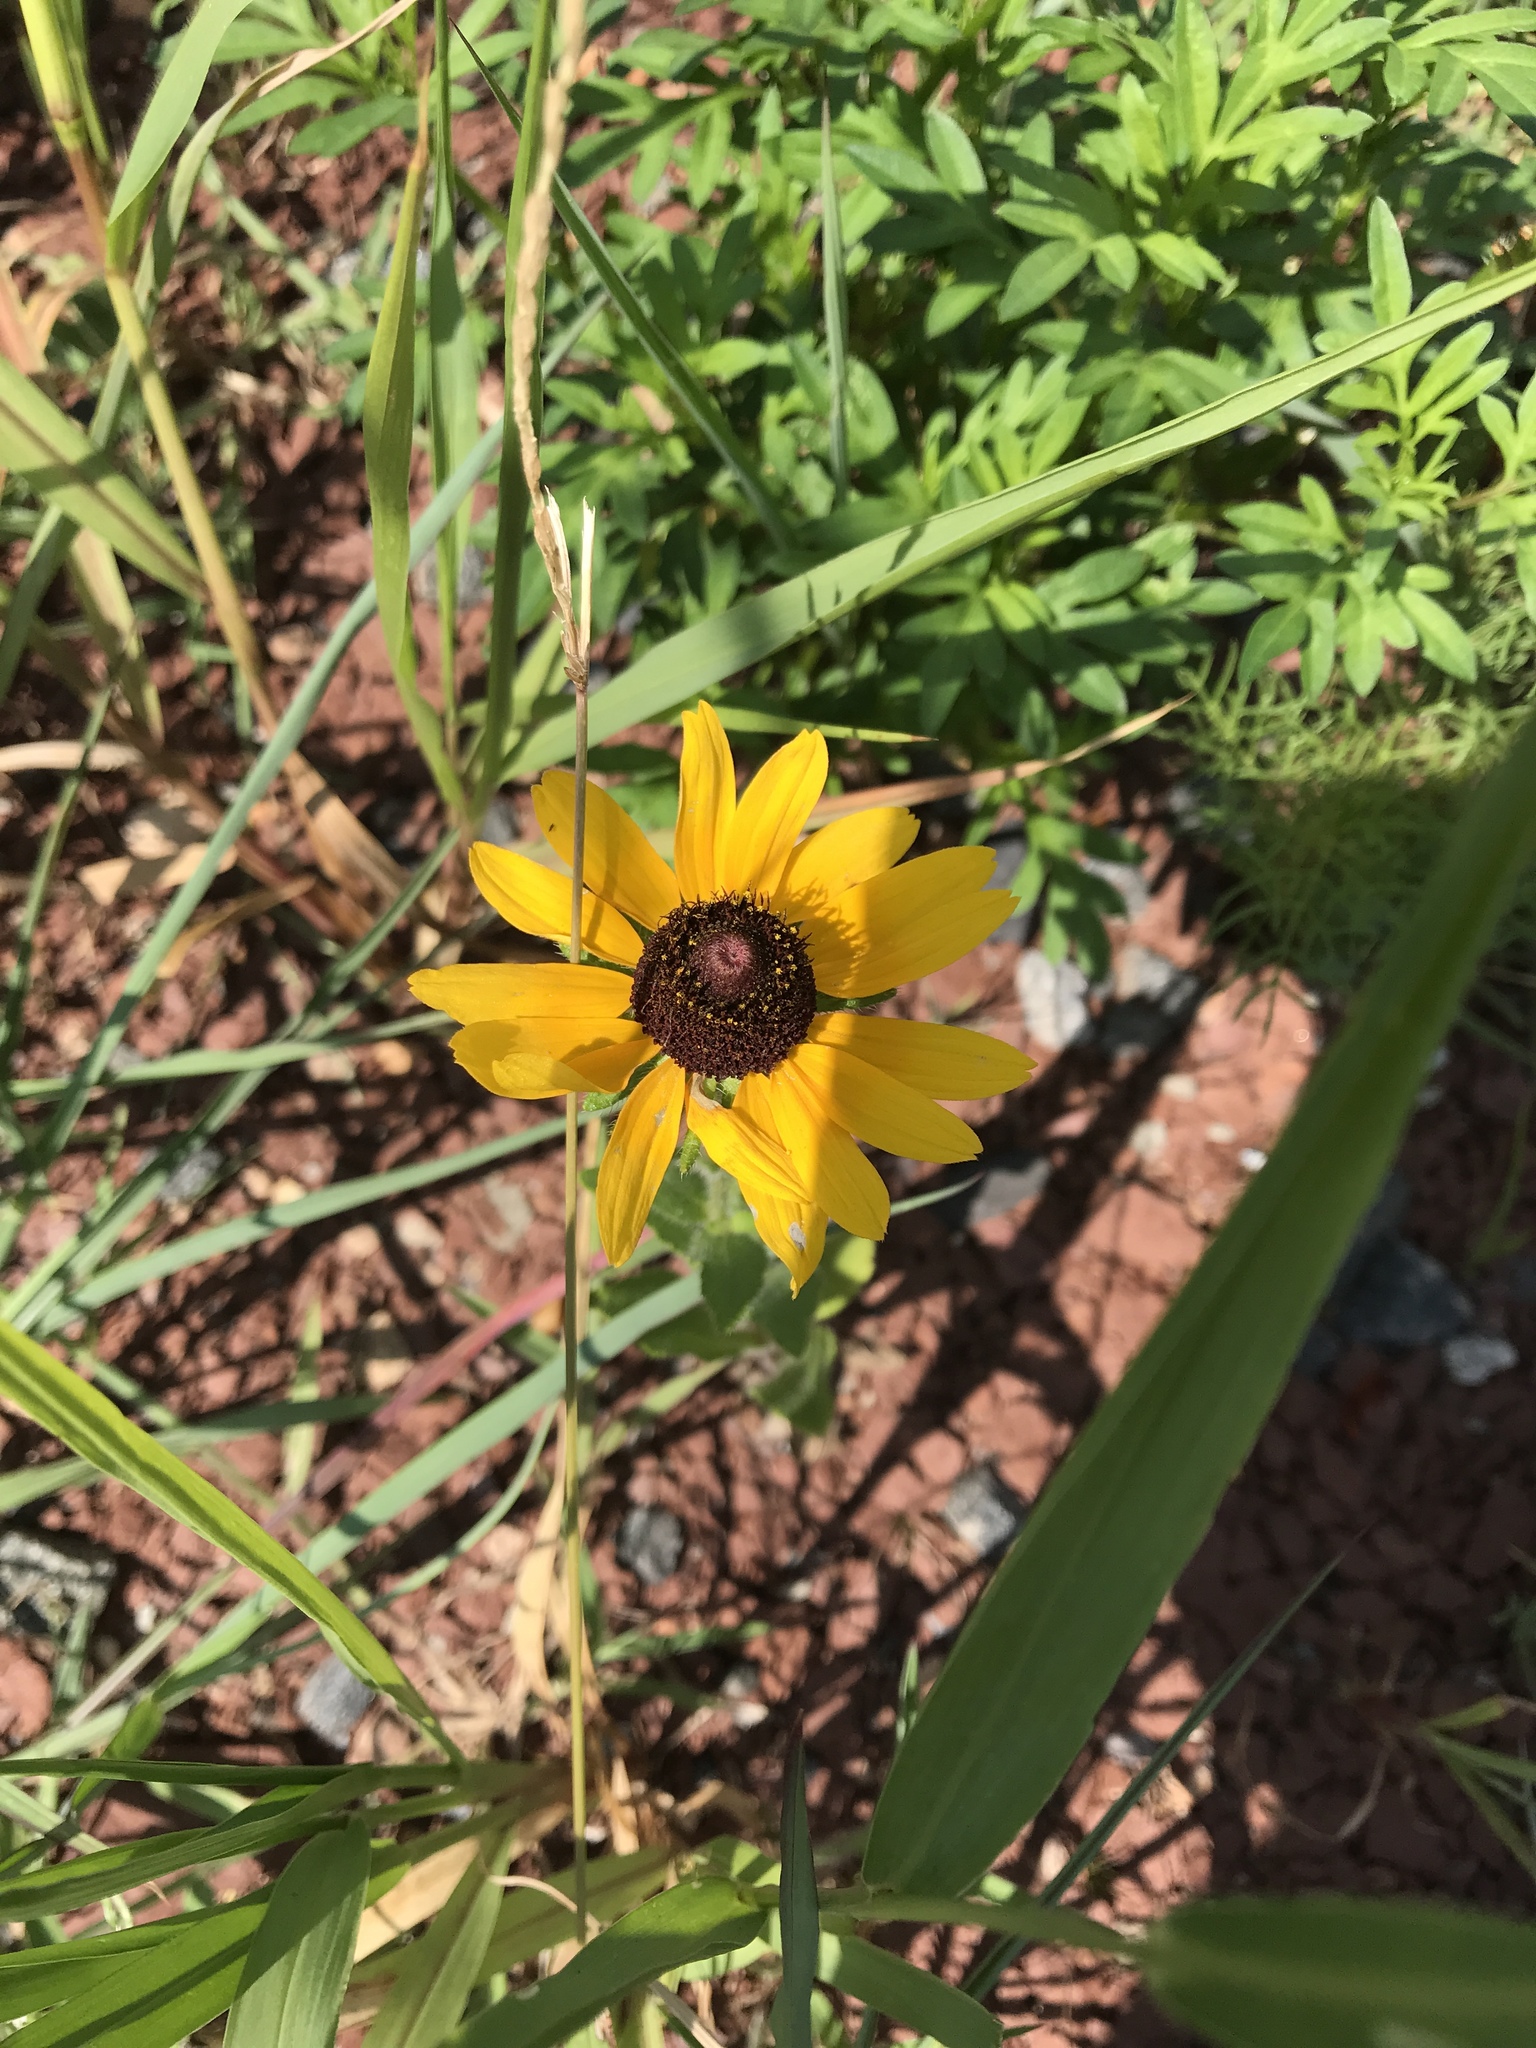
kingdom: Plantae
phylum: Tracheophyta
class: Magnoliopsida
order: Asterales
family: Asteraceae
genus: Rudbeckia
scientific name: Rudbeckia hirta
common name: Black-eyed-susan
